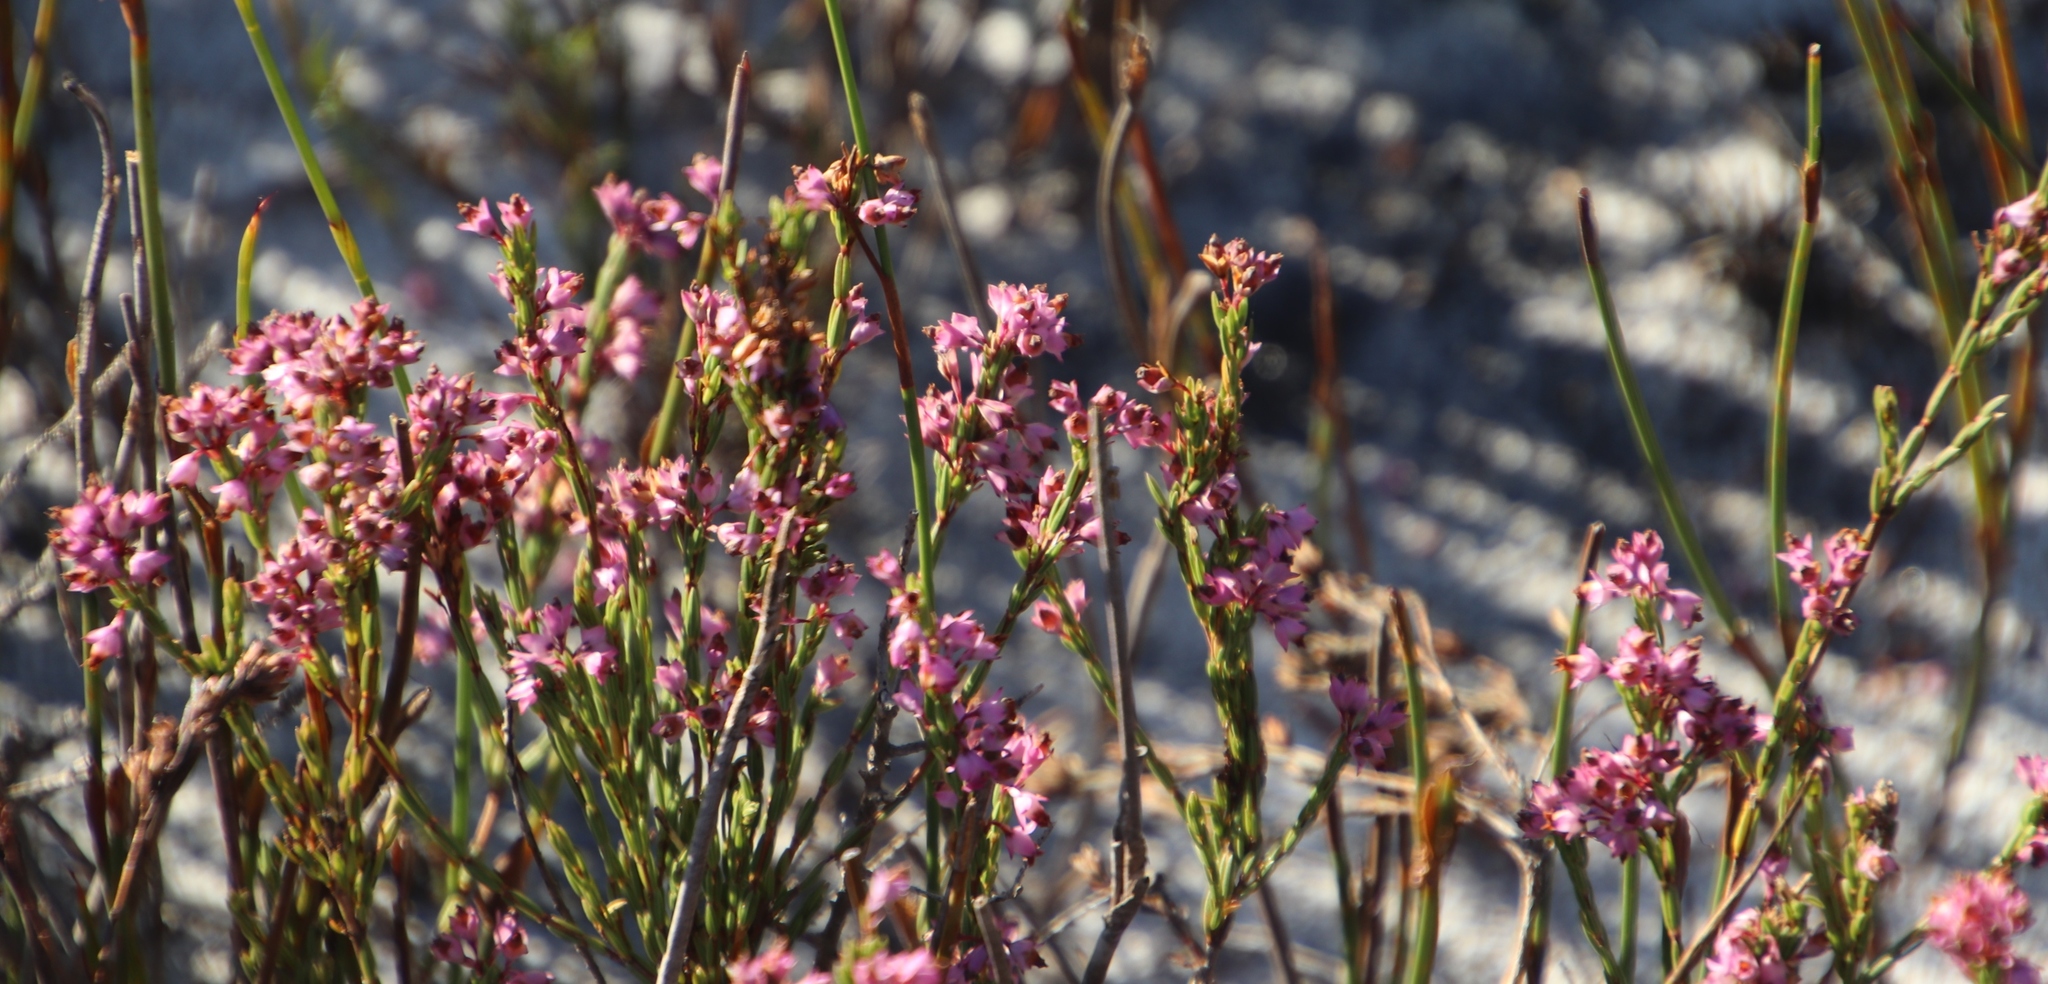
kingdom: Plantae
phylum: Tracheophyta
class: Magnoliopsida
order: Ericales
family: Ericaceae
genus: Erica
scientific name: Erica corifolia
